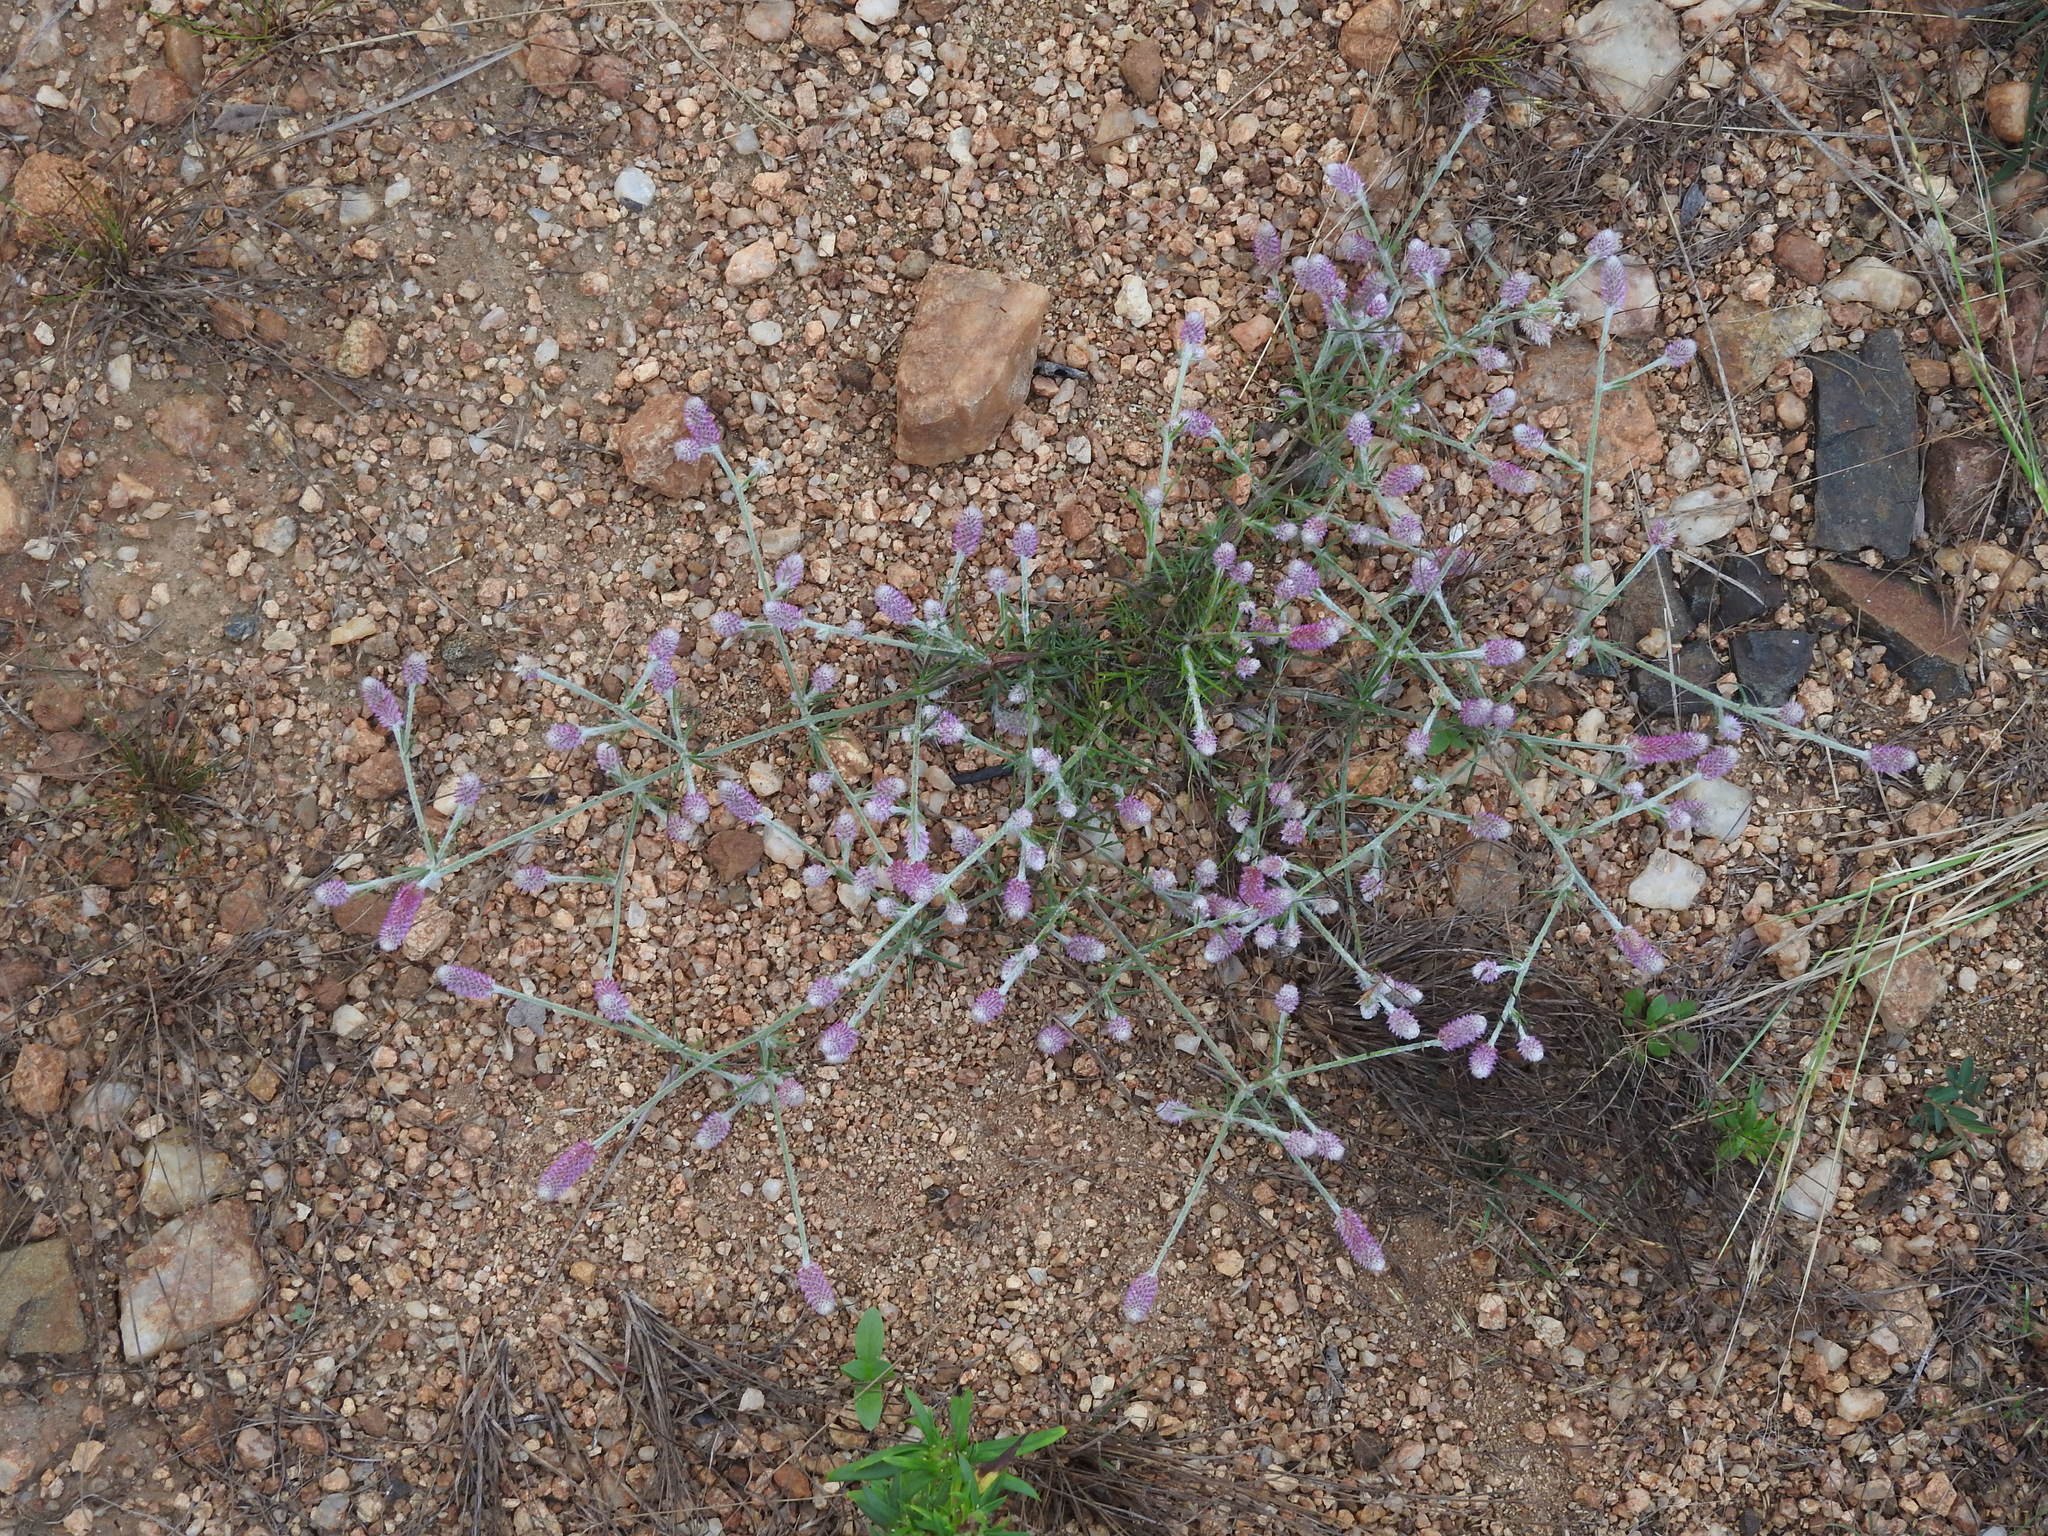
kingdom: Plantae
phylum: Tracheophyta
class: Magnoliopsida
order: Caryophyllales
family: Amaranthaceae
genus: Trichuriella
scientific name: Trichuriella monsoniae
